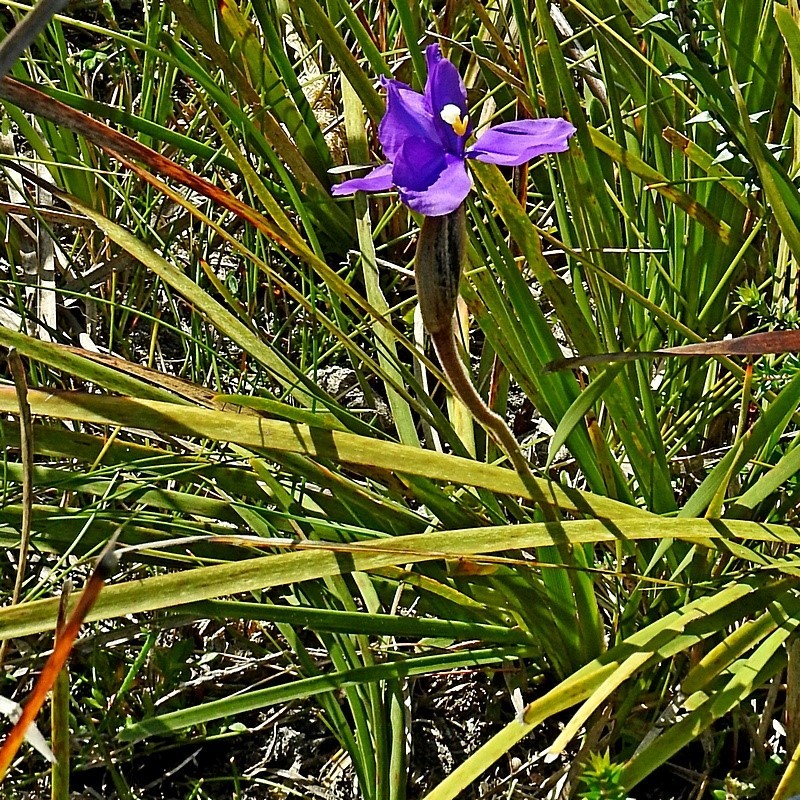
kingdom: Plantae
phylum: Tracheophyta
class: Liliopsida
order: Asparagales
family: Iridaceae
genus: Patersonia
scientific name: Patersonia sericea
